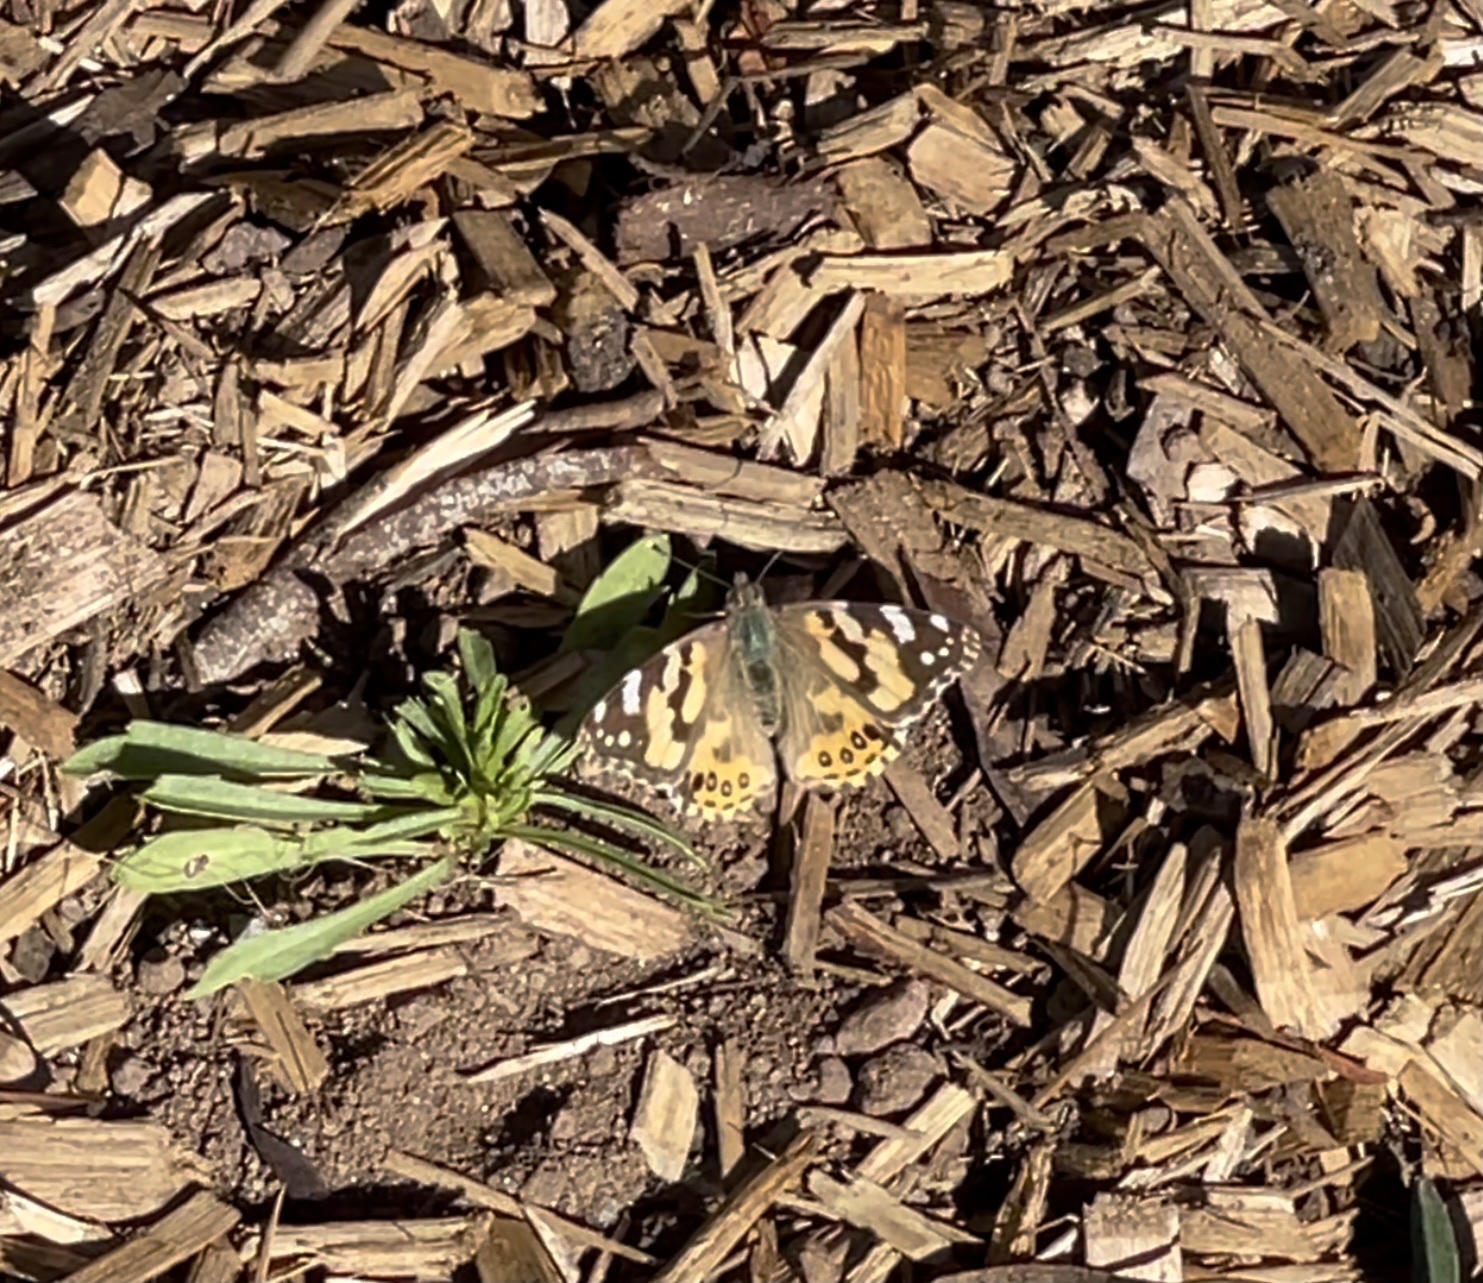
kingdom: Animalia
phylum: Arthropoda
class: Insecta
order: Lepidoptera
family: Nymphalidae
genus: Vanessa
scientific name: Vanessa kershawi
